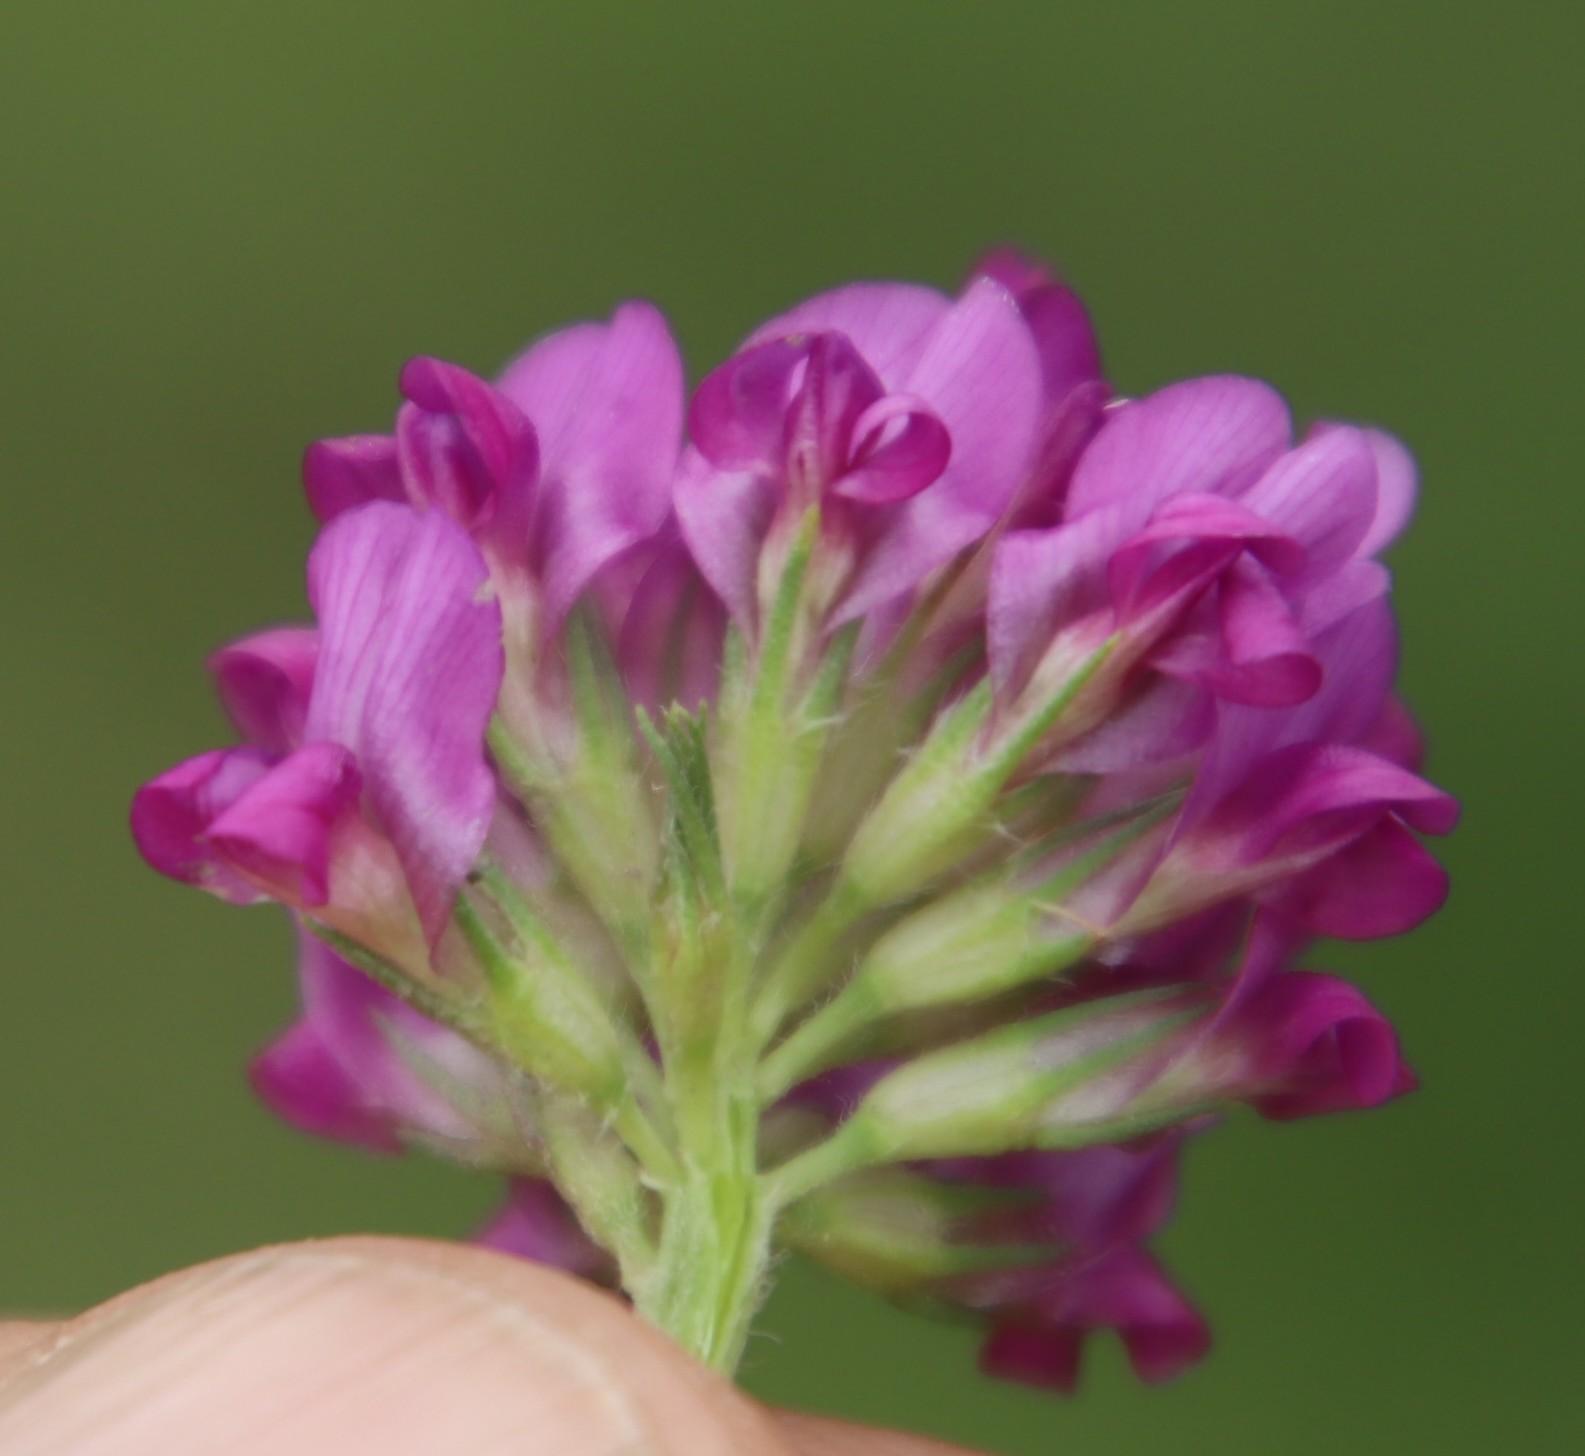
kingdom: Plantae
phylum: Tracheophyta
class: Magnoliopsida
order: Fabales
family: Fabaceae
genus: Trifolium
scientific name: Trifolium burchellianum
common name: Burchell's clover
